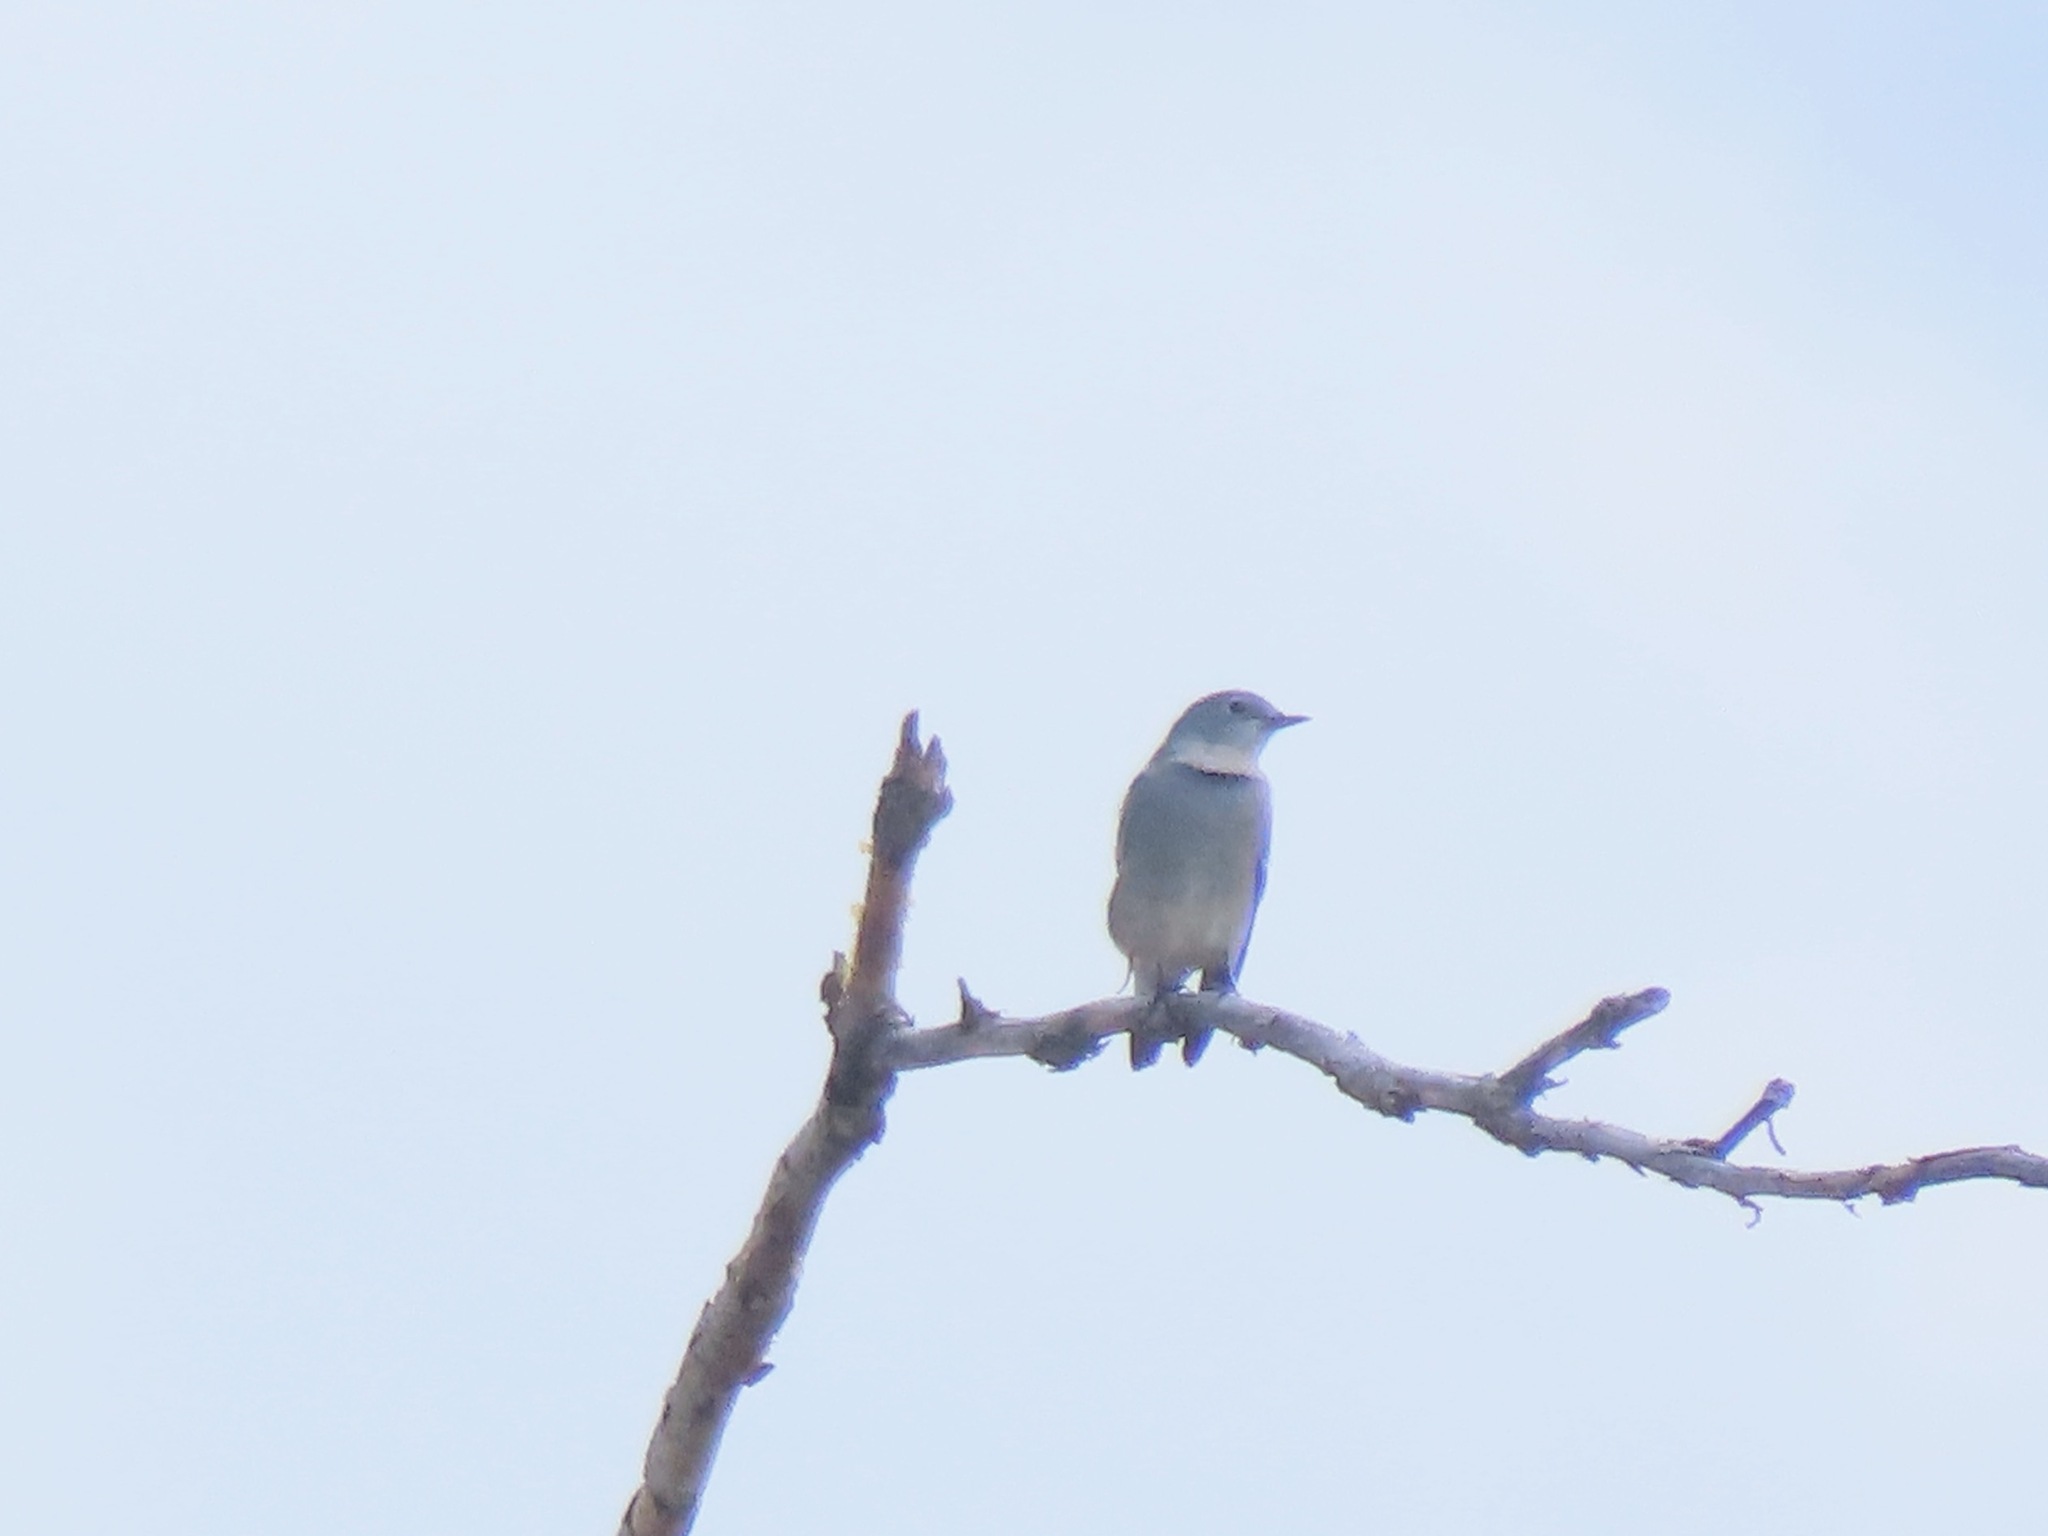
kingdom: Animalia
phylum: Chordata
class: Aves
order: Passeriformes
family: Turdidae
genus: Sialia
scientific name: Sialia currucoides
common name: Mountain bluebird
